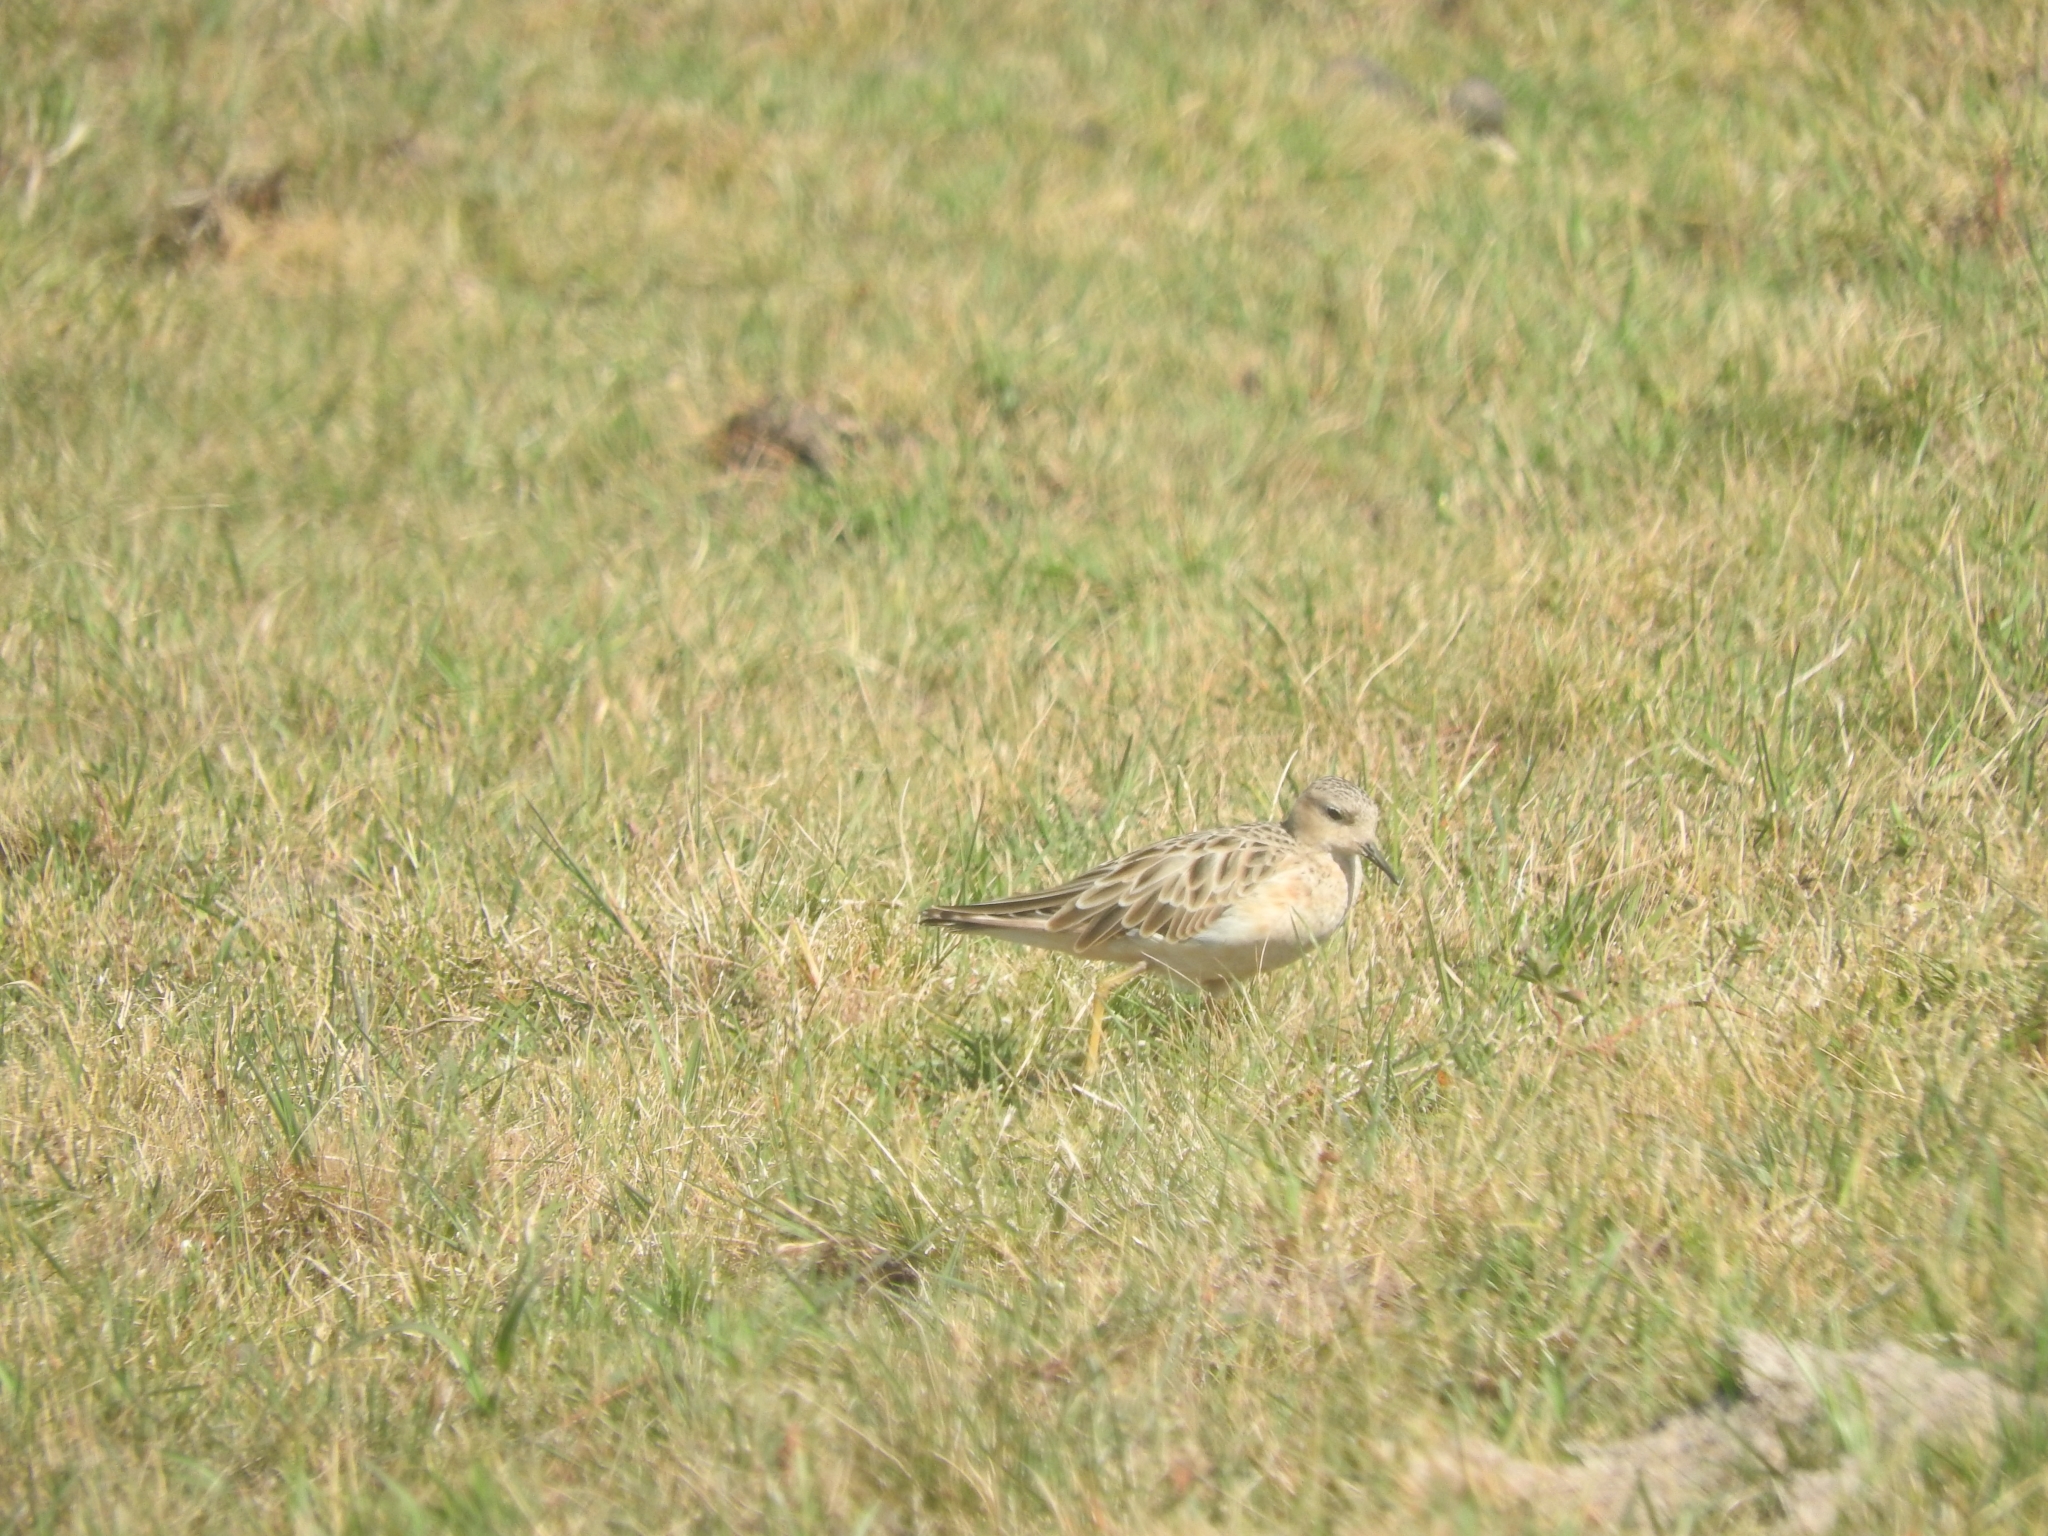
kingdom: Animalia
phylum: Chordata
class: Aves
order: Charadriiformes
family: Scolopacidae
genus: Calidris
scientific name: Calidris subruficollis
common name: Buff-breasted sandpiper
